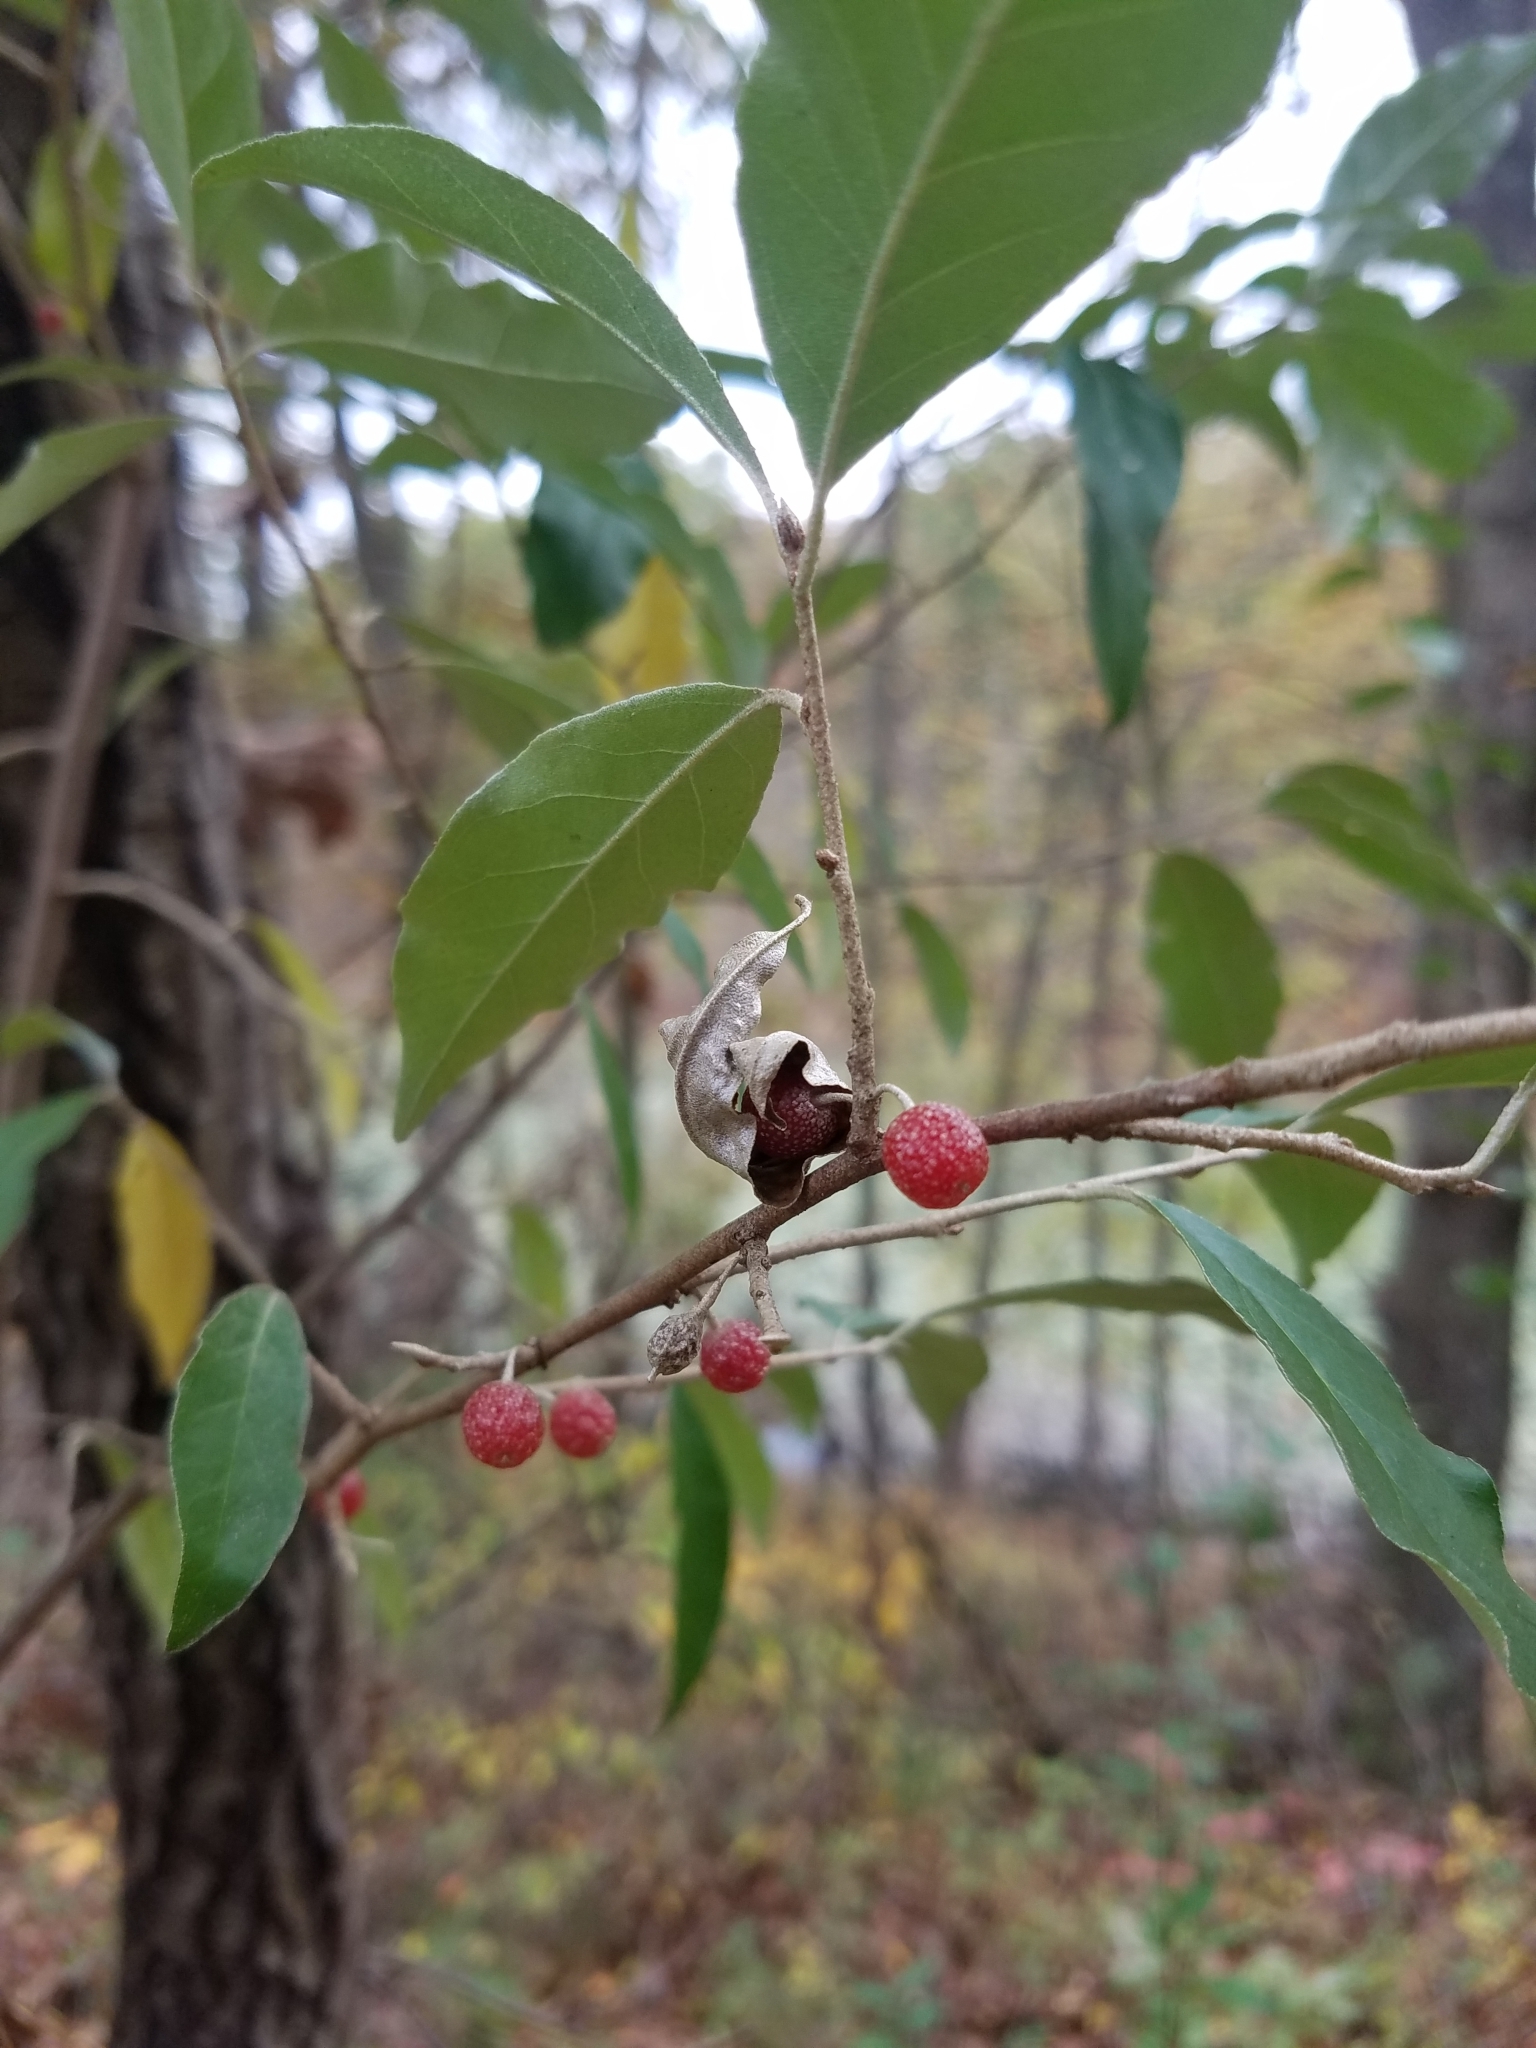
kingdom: Plantae
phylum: Tracheophyta
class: Magnoliopsida
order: Rosales
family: Elaeagnaceae
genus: Elaeagnus
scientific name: Elaeagnus umbellata
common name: Autumn olive
